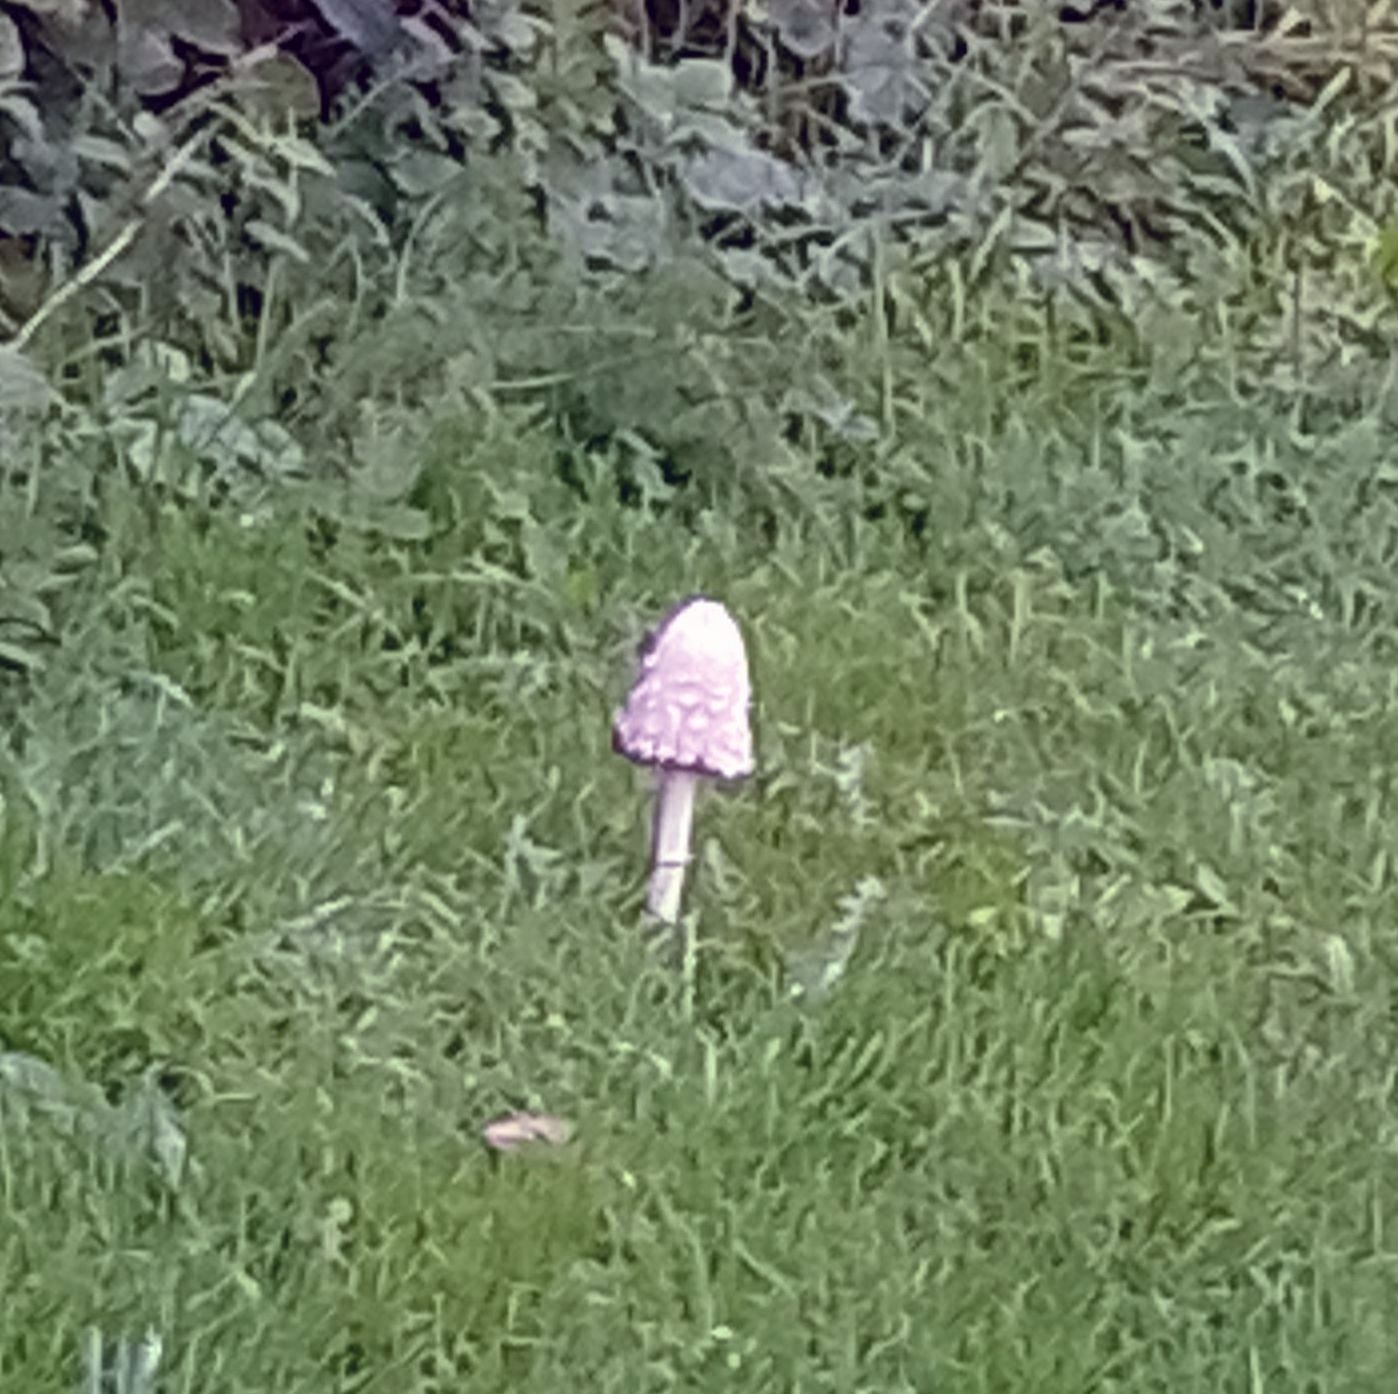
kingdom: Fungi
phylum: Basidiomycota
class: Agaricomycetes
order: Agaricales
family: Agaricaceae
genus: Coprinus
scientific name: Coprinus comatus
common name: Lawyer's wig
